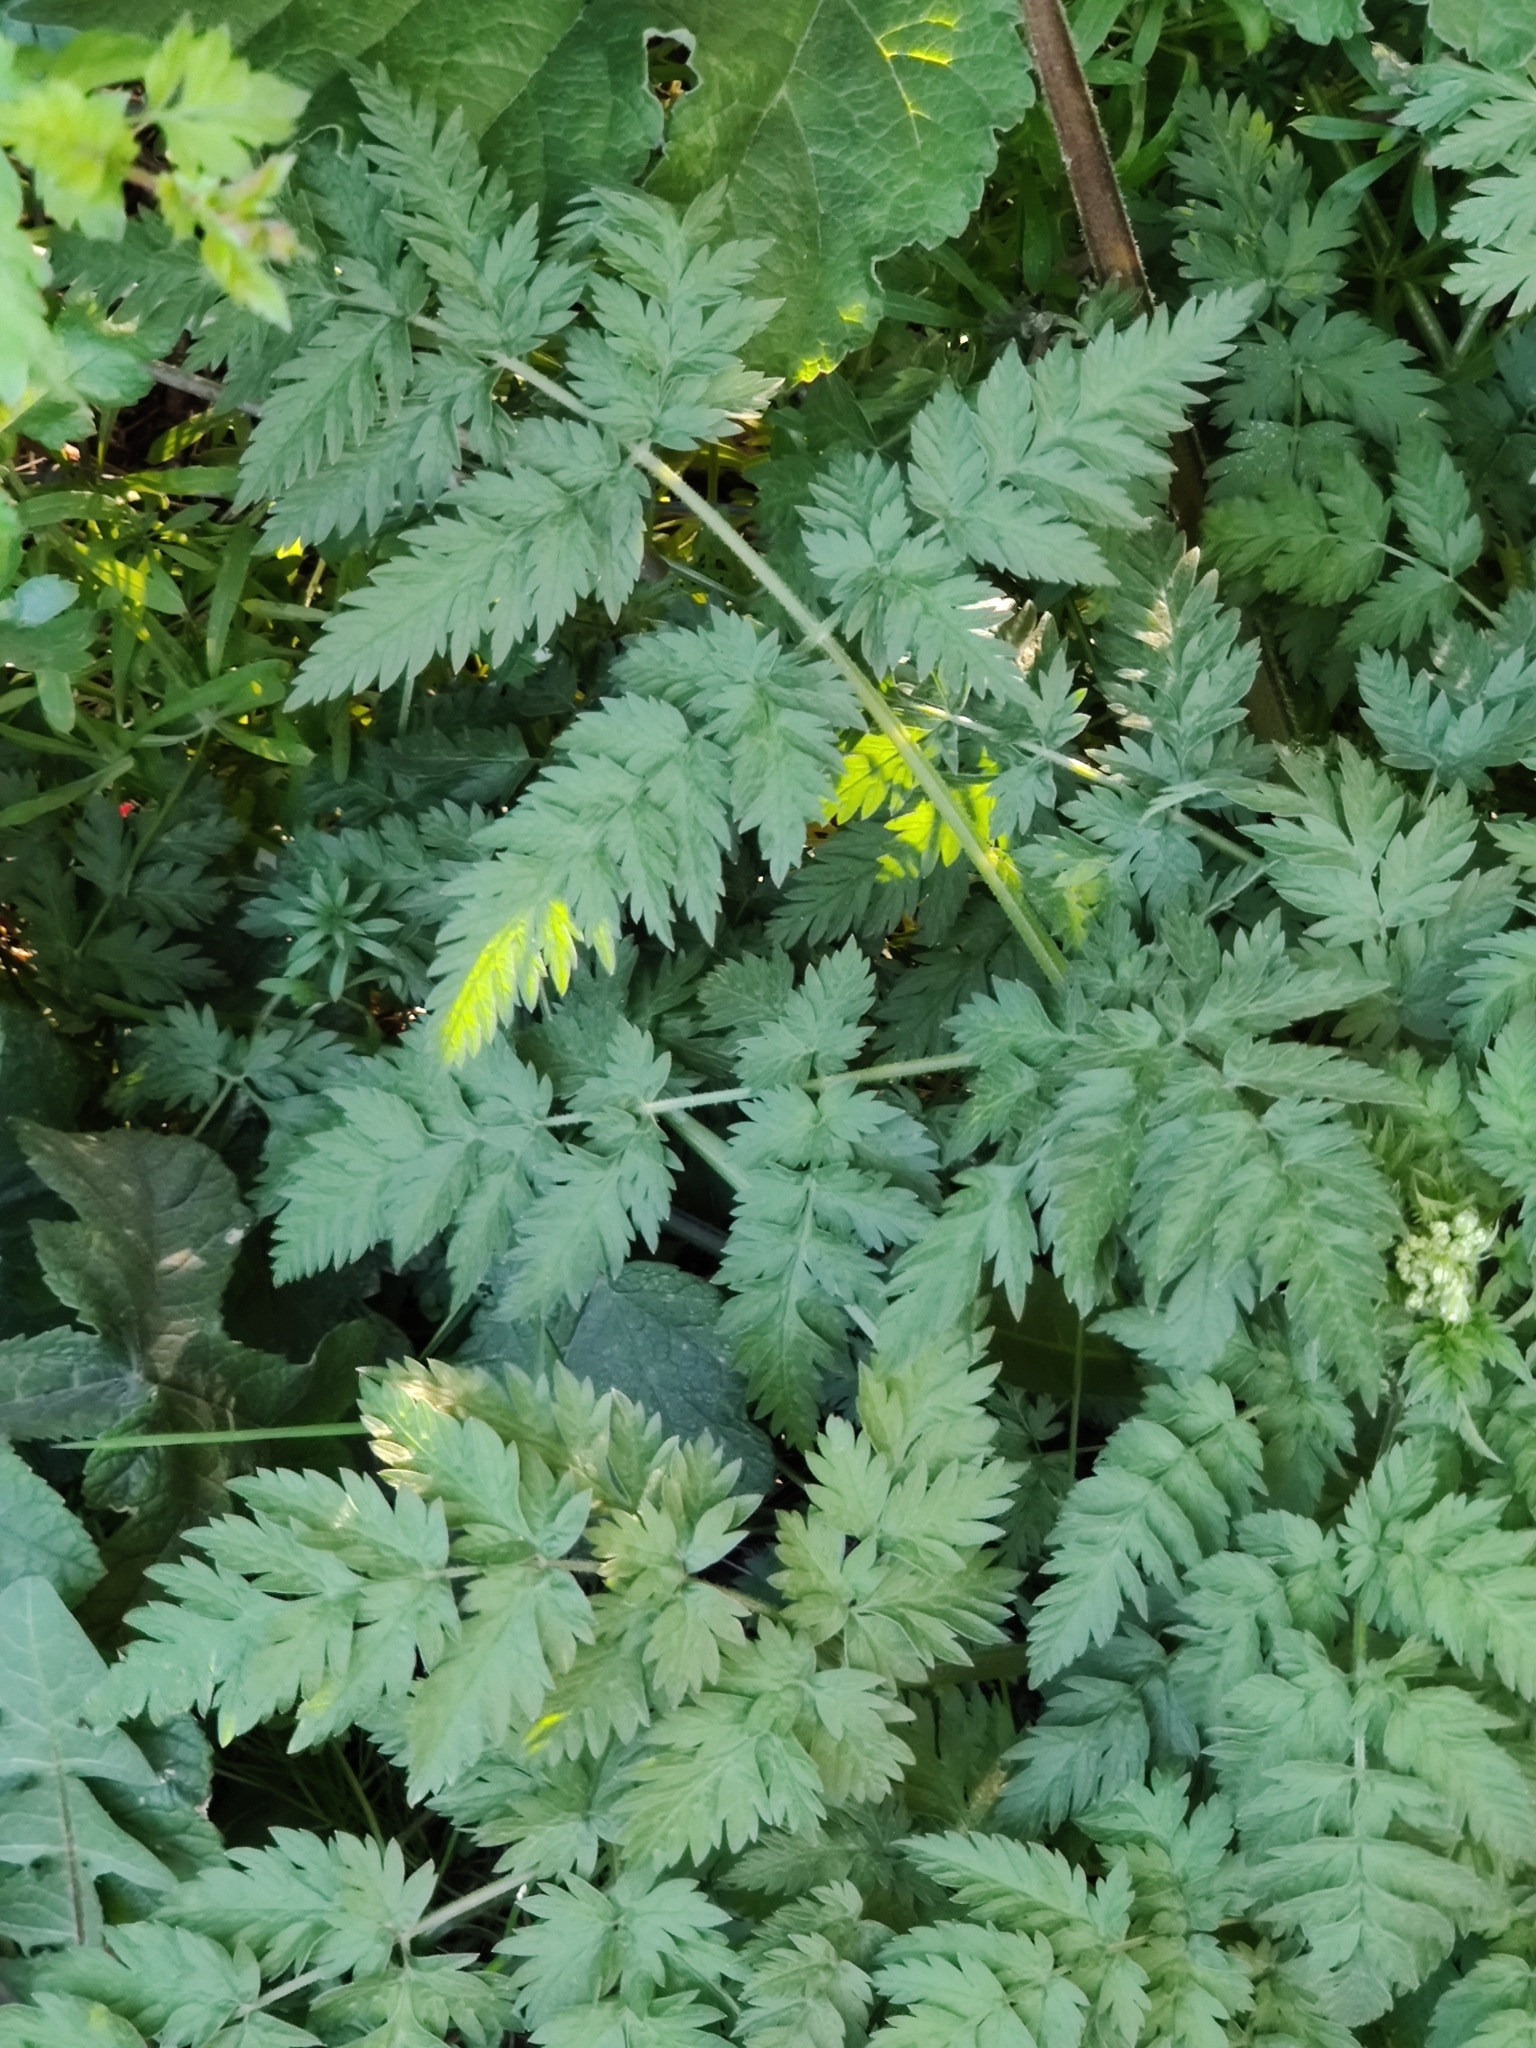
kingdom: Plantae
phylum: Tracheophyta
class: Magnoliopsida
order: Apiales
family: Apiaceae
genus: Anthriscus
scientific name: Anthriscus sylvestris
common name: Cow parsley
